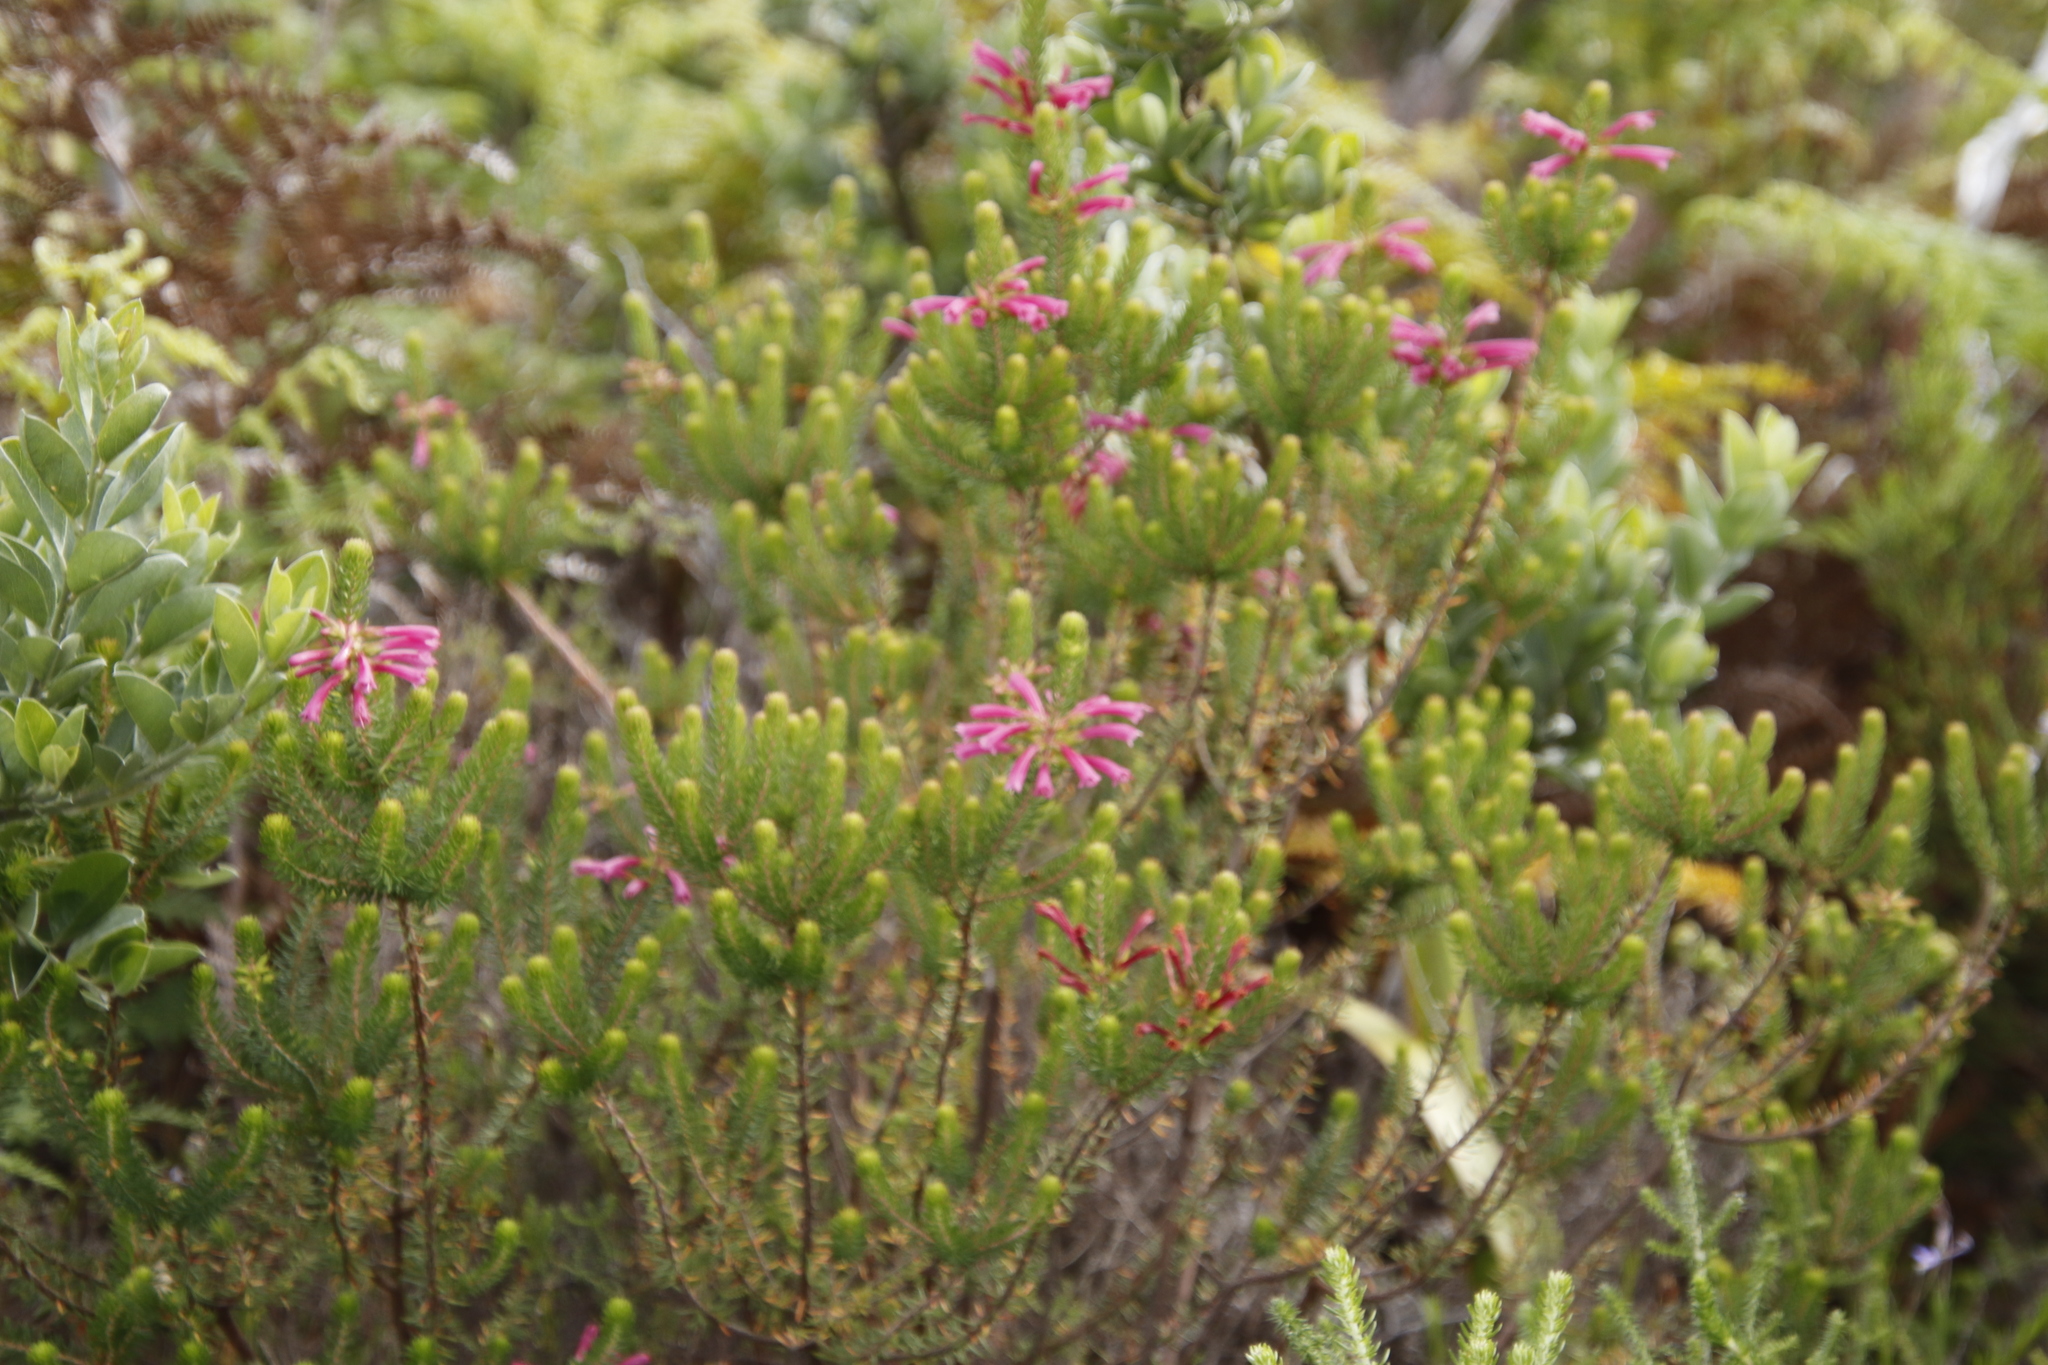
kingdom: Plantae
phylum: Tracheophyta
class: Magnoliopsida
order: Ericales
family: Ericaceae
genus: Erica
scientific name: Erica abietina
